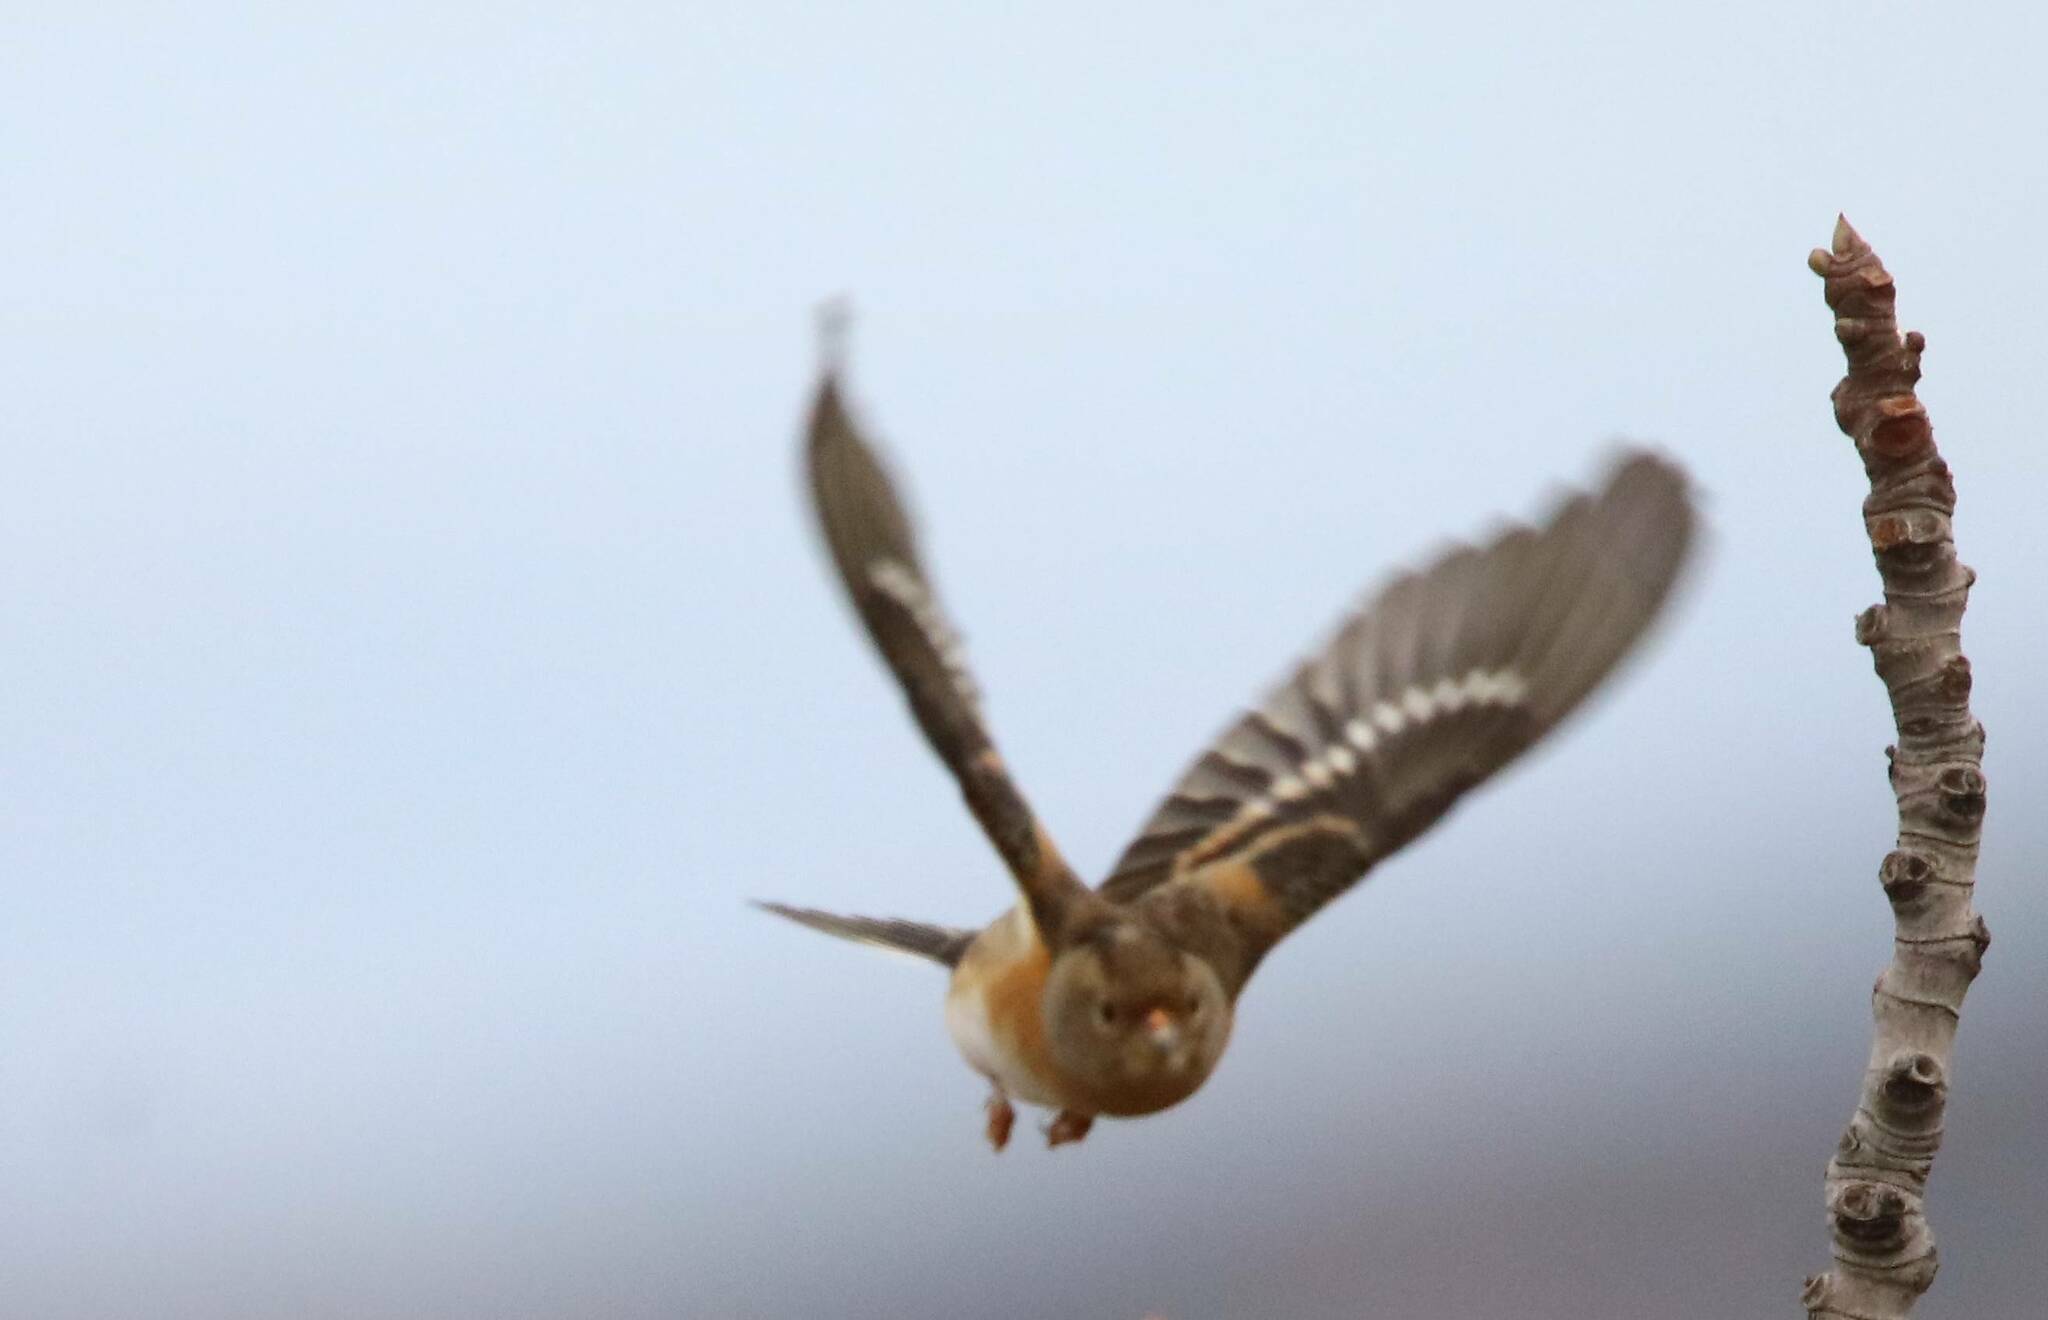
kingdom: Animalia
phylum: Chordata
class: Aves
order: Passeriformes
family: Fringillidae
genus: Fringilla
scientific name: Fringilla montifringilla
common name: Brambling
